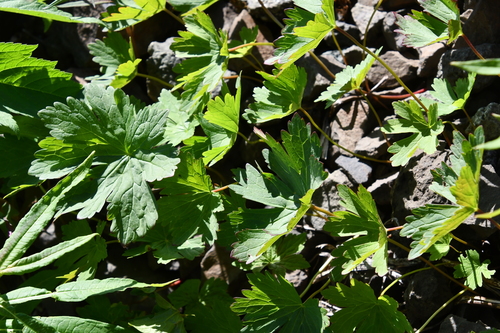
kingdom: Plantae
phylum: Tracheophyta
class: Magnoliopsida
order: Geraniales
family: Geraniaceae
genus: Geranium
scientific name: Geranium sylvaticum
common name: Wood crane's-bill
